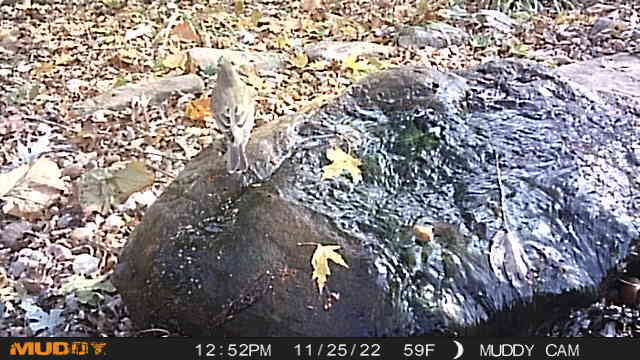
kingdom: Animalia
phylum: Chordata
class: Aves
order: Passeriformes
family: Turdidae
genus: Turdus
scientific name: Turdus migratorius
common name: American robin
